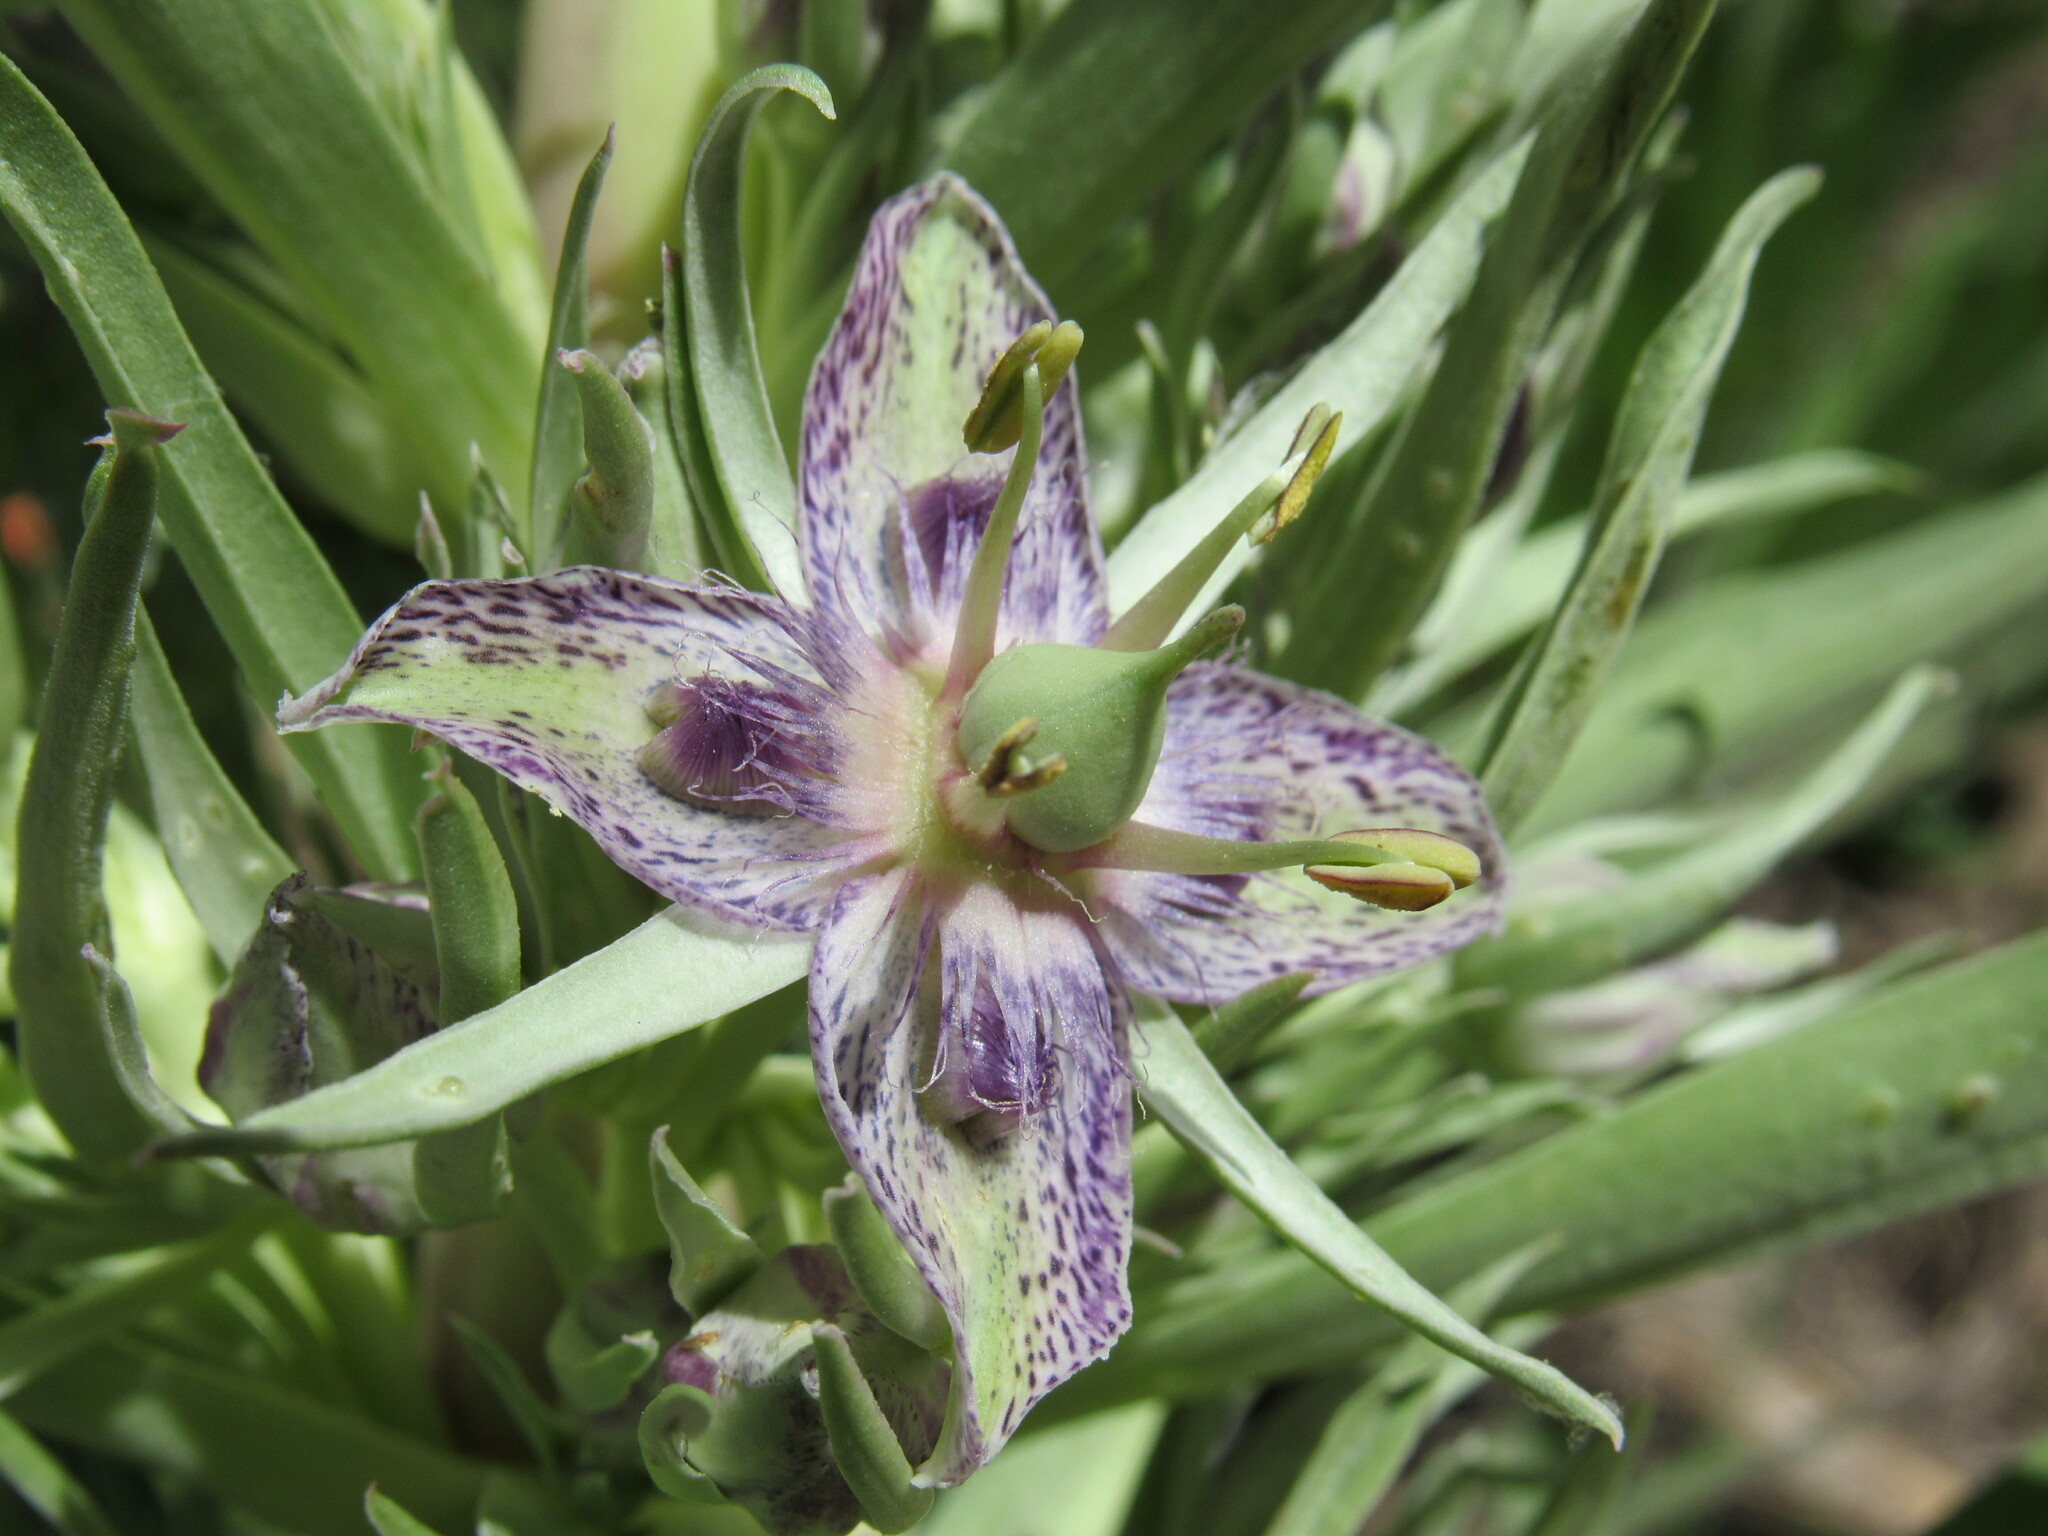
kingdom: Plantae
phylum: Tracheophyta
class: Magnoliopsida
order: Gentianales
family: Gentianaceae
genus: Frasera
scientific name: Frasera speciosa
